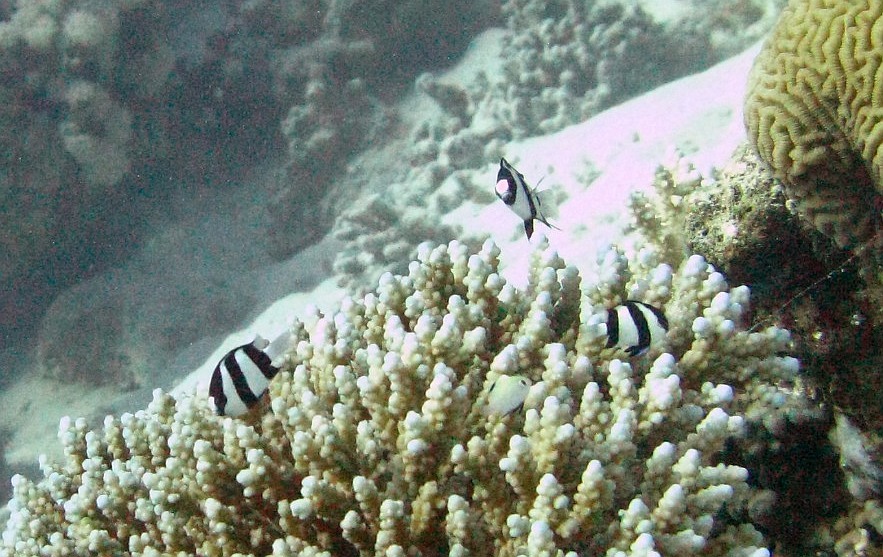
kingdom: Animalia
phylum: Chordata
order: Perciformes
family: Pomacentridae
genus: Dascyllus
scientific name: Dascyllus abudafur
